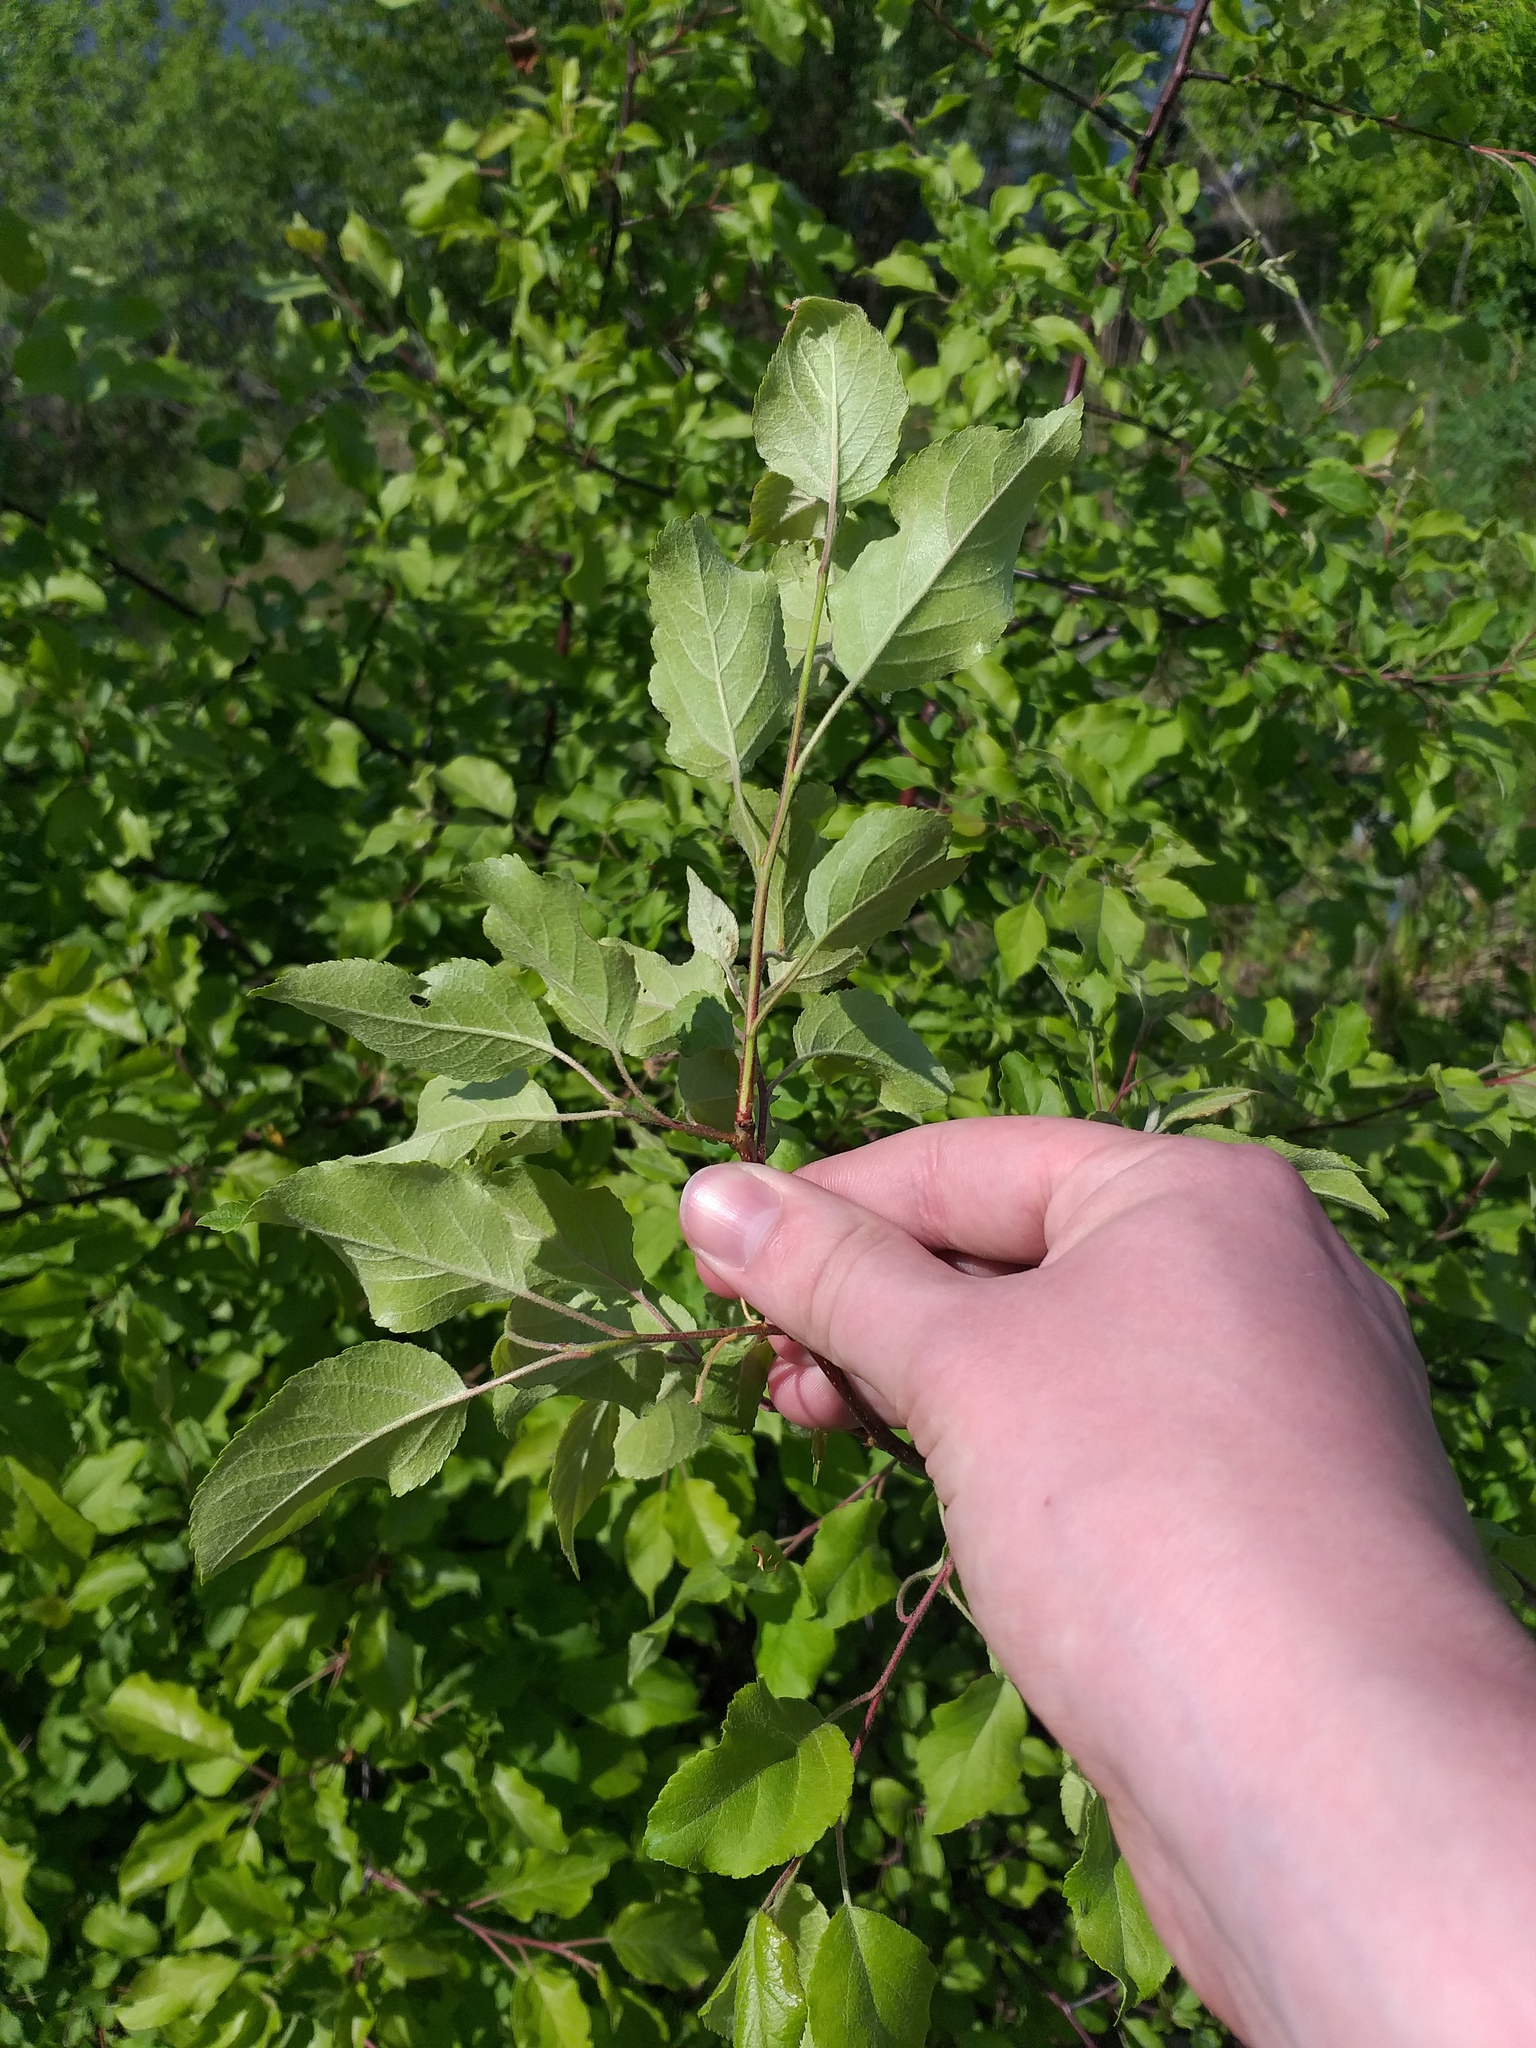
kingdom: Plantae
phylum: Tracheophyta
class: Magnoliopsida
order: Rosales
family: Rosaceae
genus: Malus
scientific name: Malus domestica
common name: Apple
